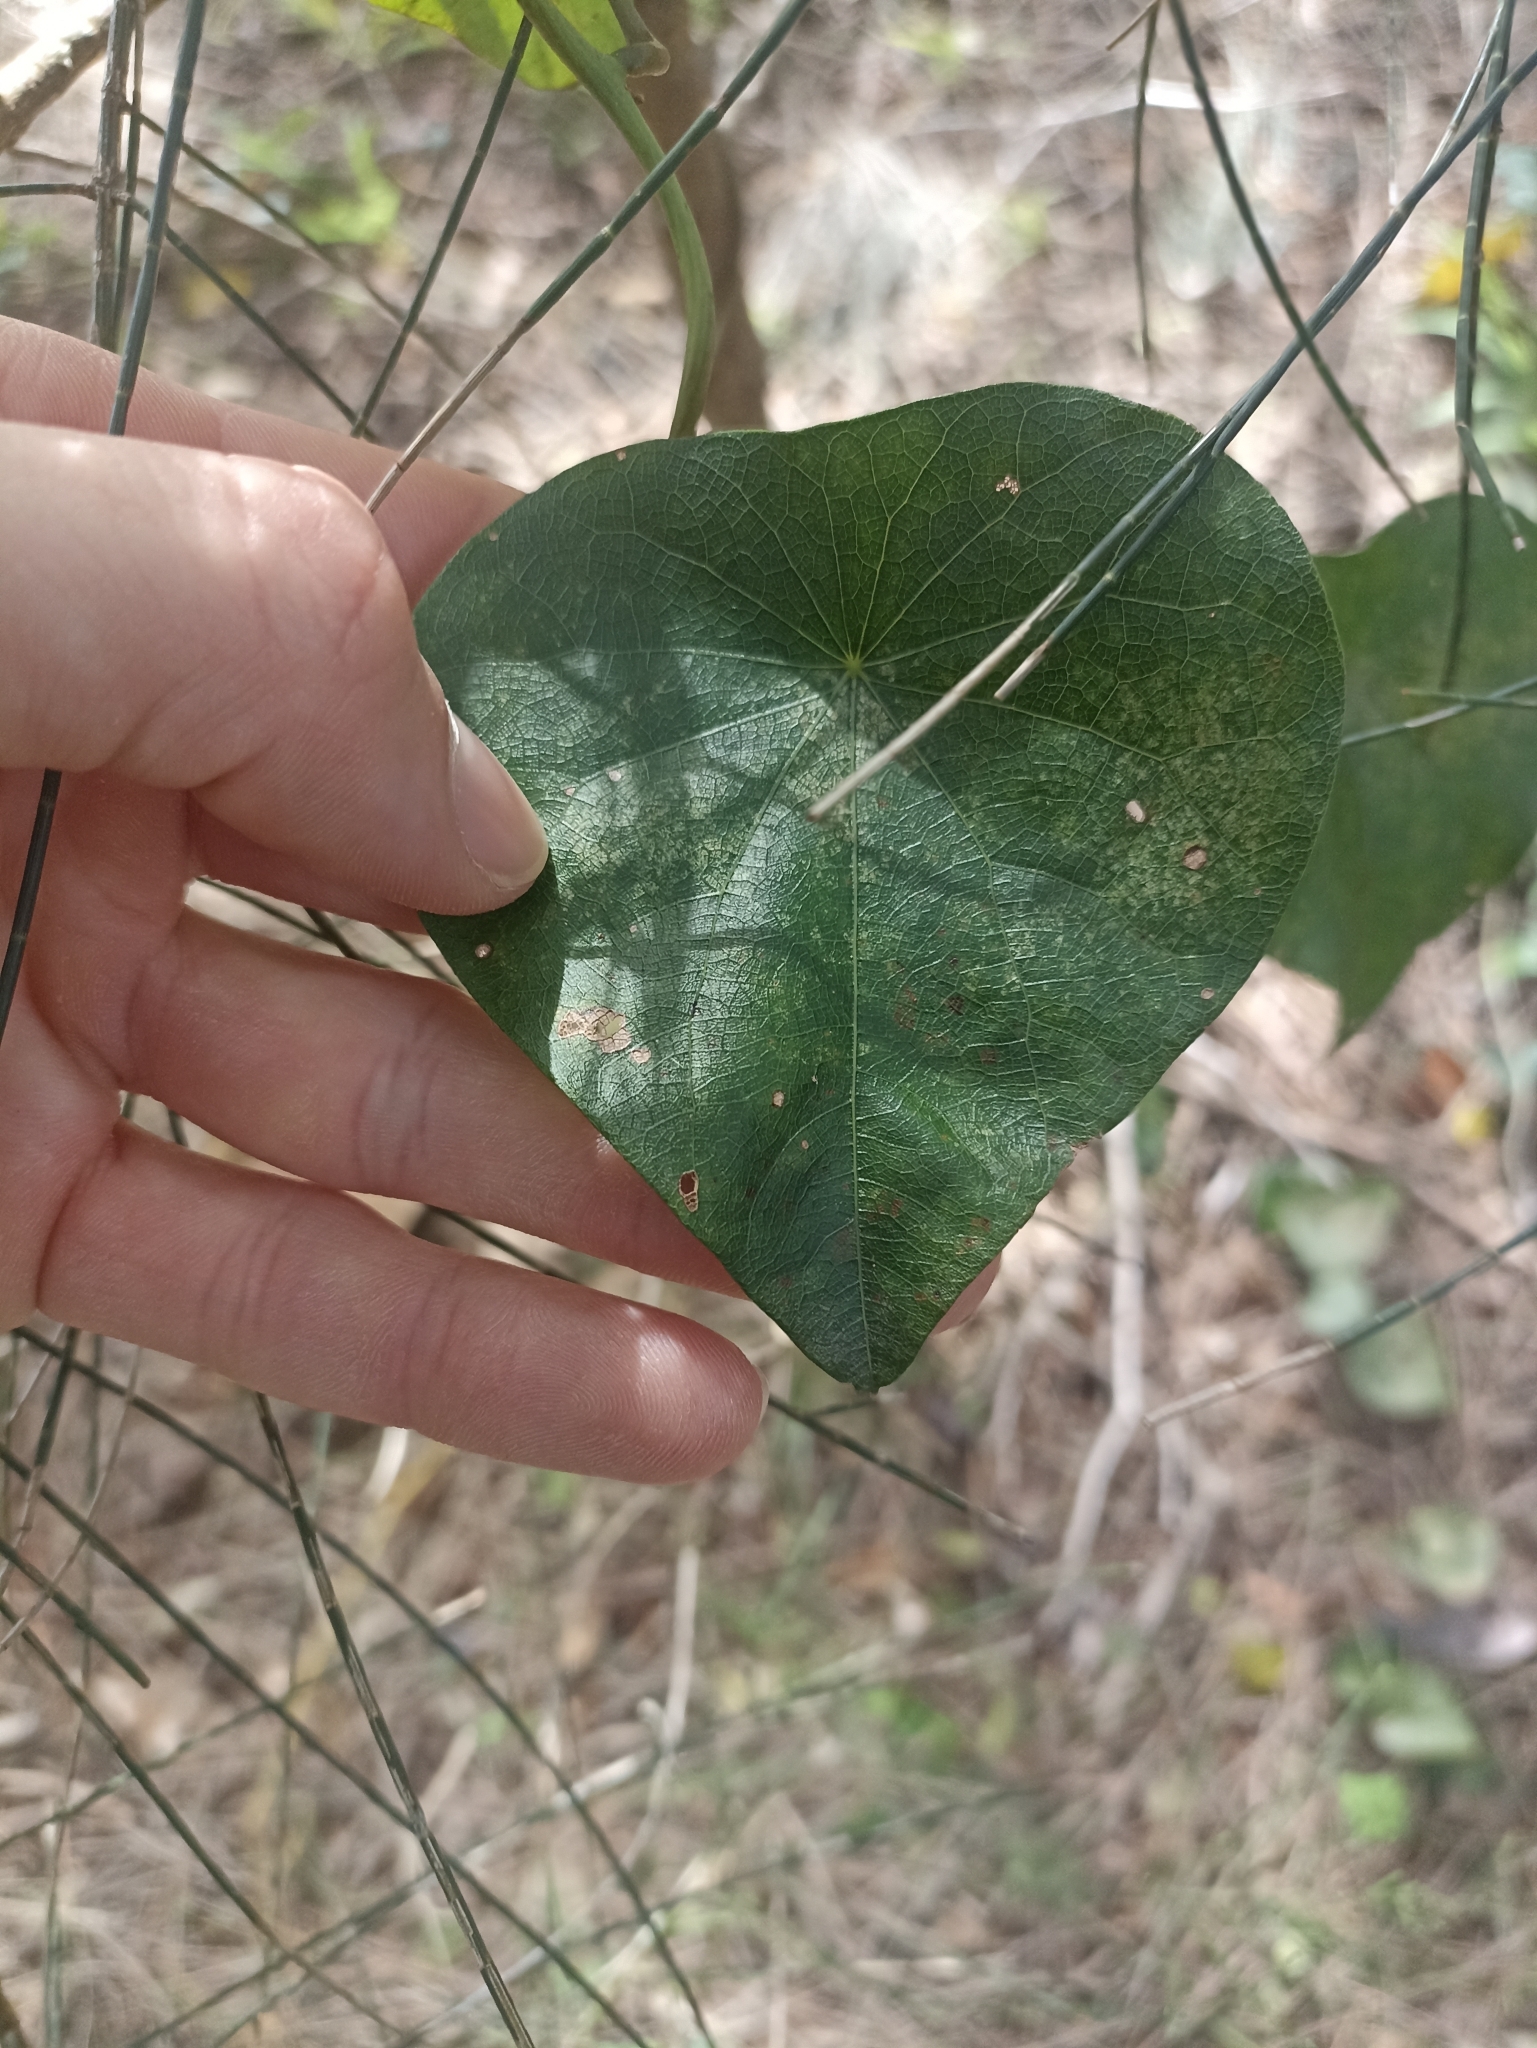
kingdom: Plantae
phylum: Tracheophyta
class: Magnoliopsida
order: Ranunculales
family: Menispermaceae
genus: Stephania
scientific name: Stephania japonica
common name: Snake vine
